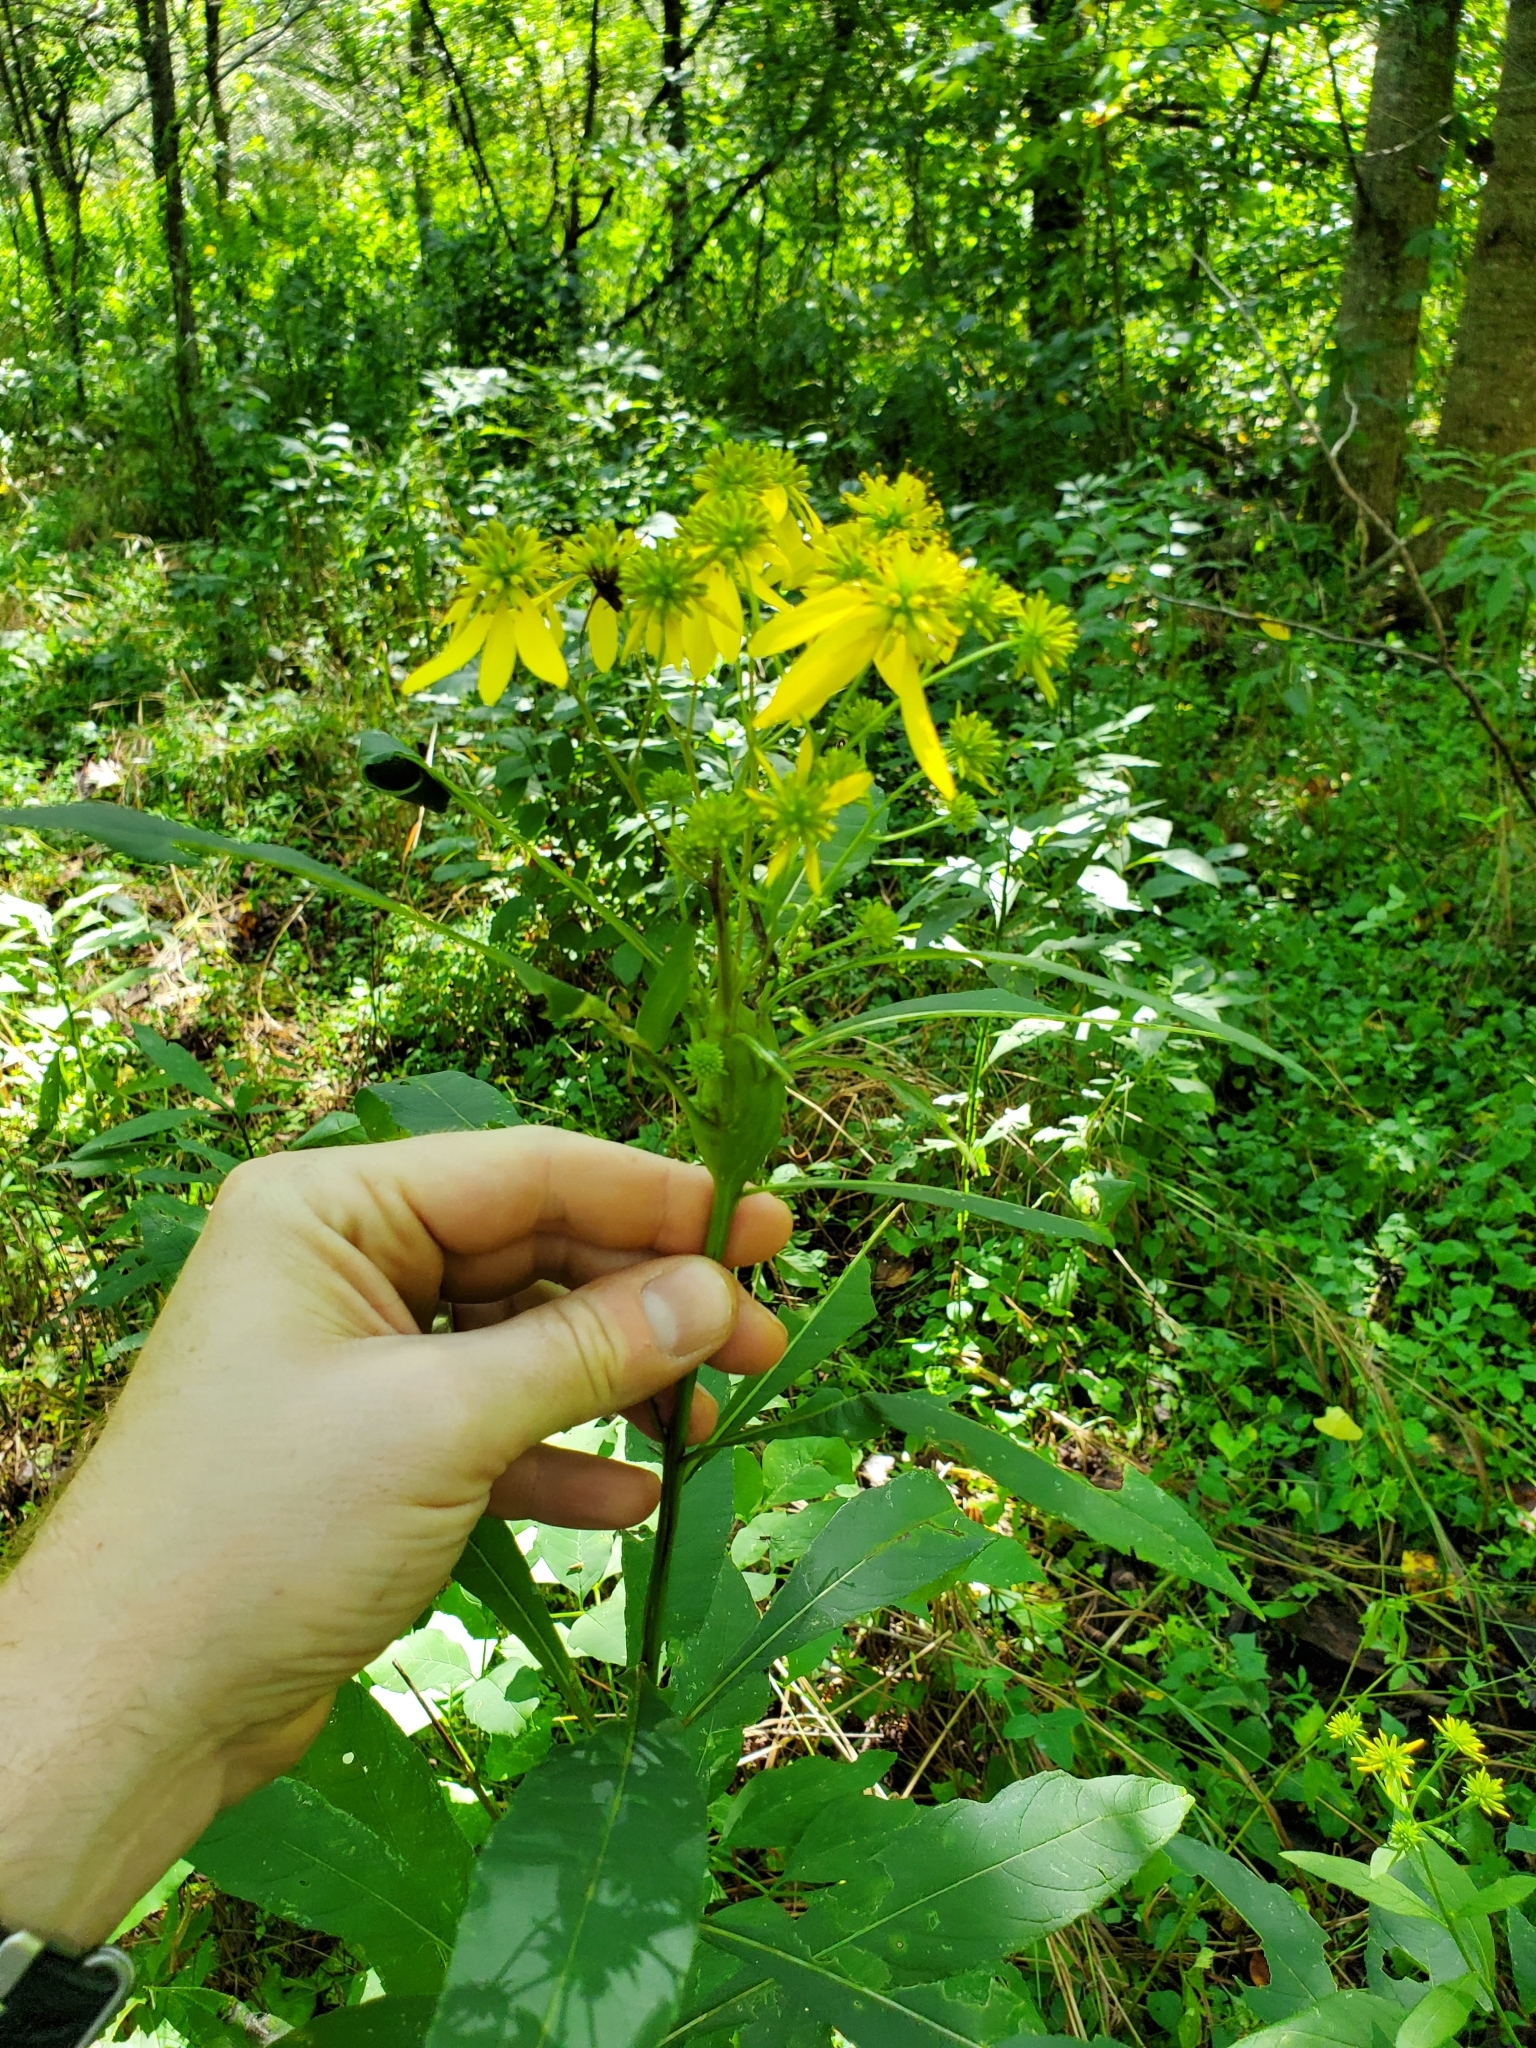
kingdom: Plantae
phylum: Tracheophyta
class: Magnoliopsida
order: Asterales
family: Asteraceae
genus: Verbesina
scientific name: Verbesina alternifolia
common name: Wingstem
